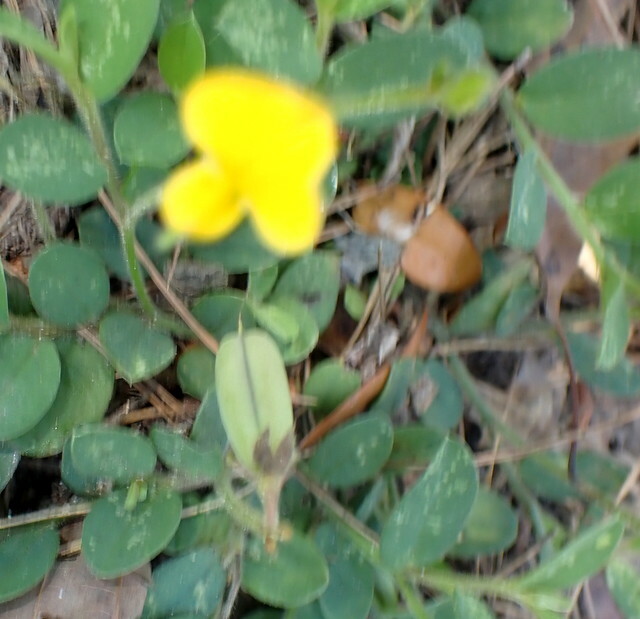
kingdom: Plantae
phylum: Tracheophyta
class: Magnoliopsida
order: Fabales
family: Fabaceae
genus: Crotalaria
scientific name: Crotalaria rotundifolia
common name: Prostrate rattlebox
